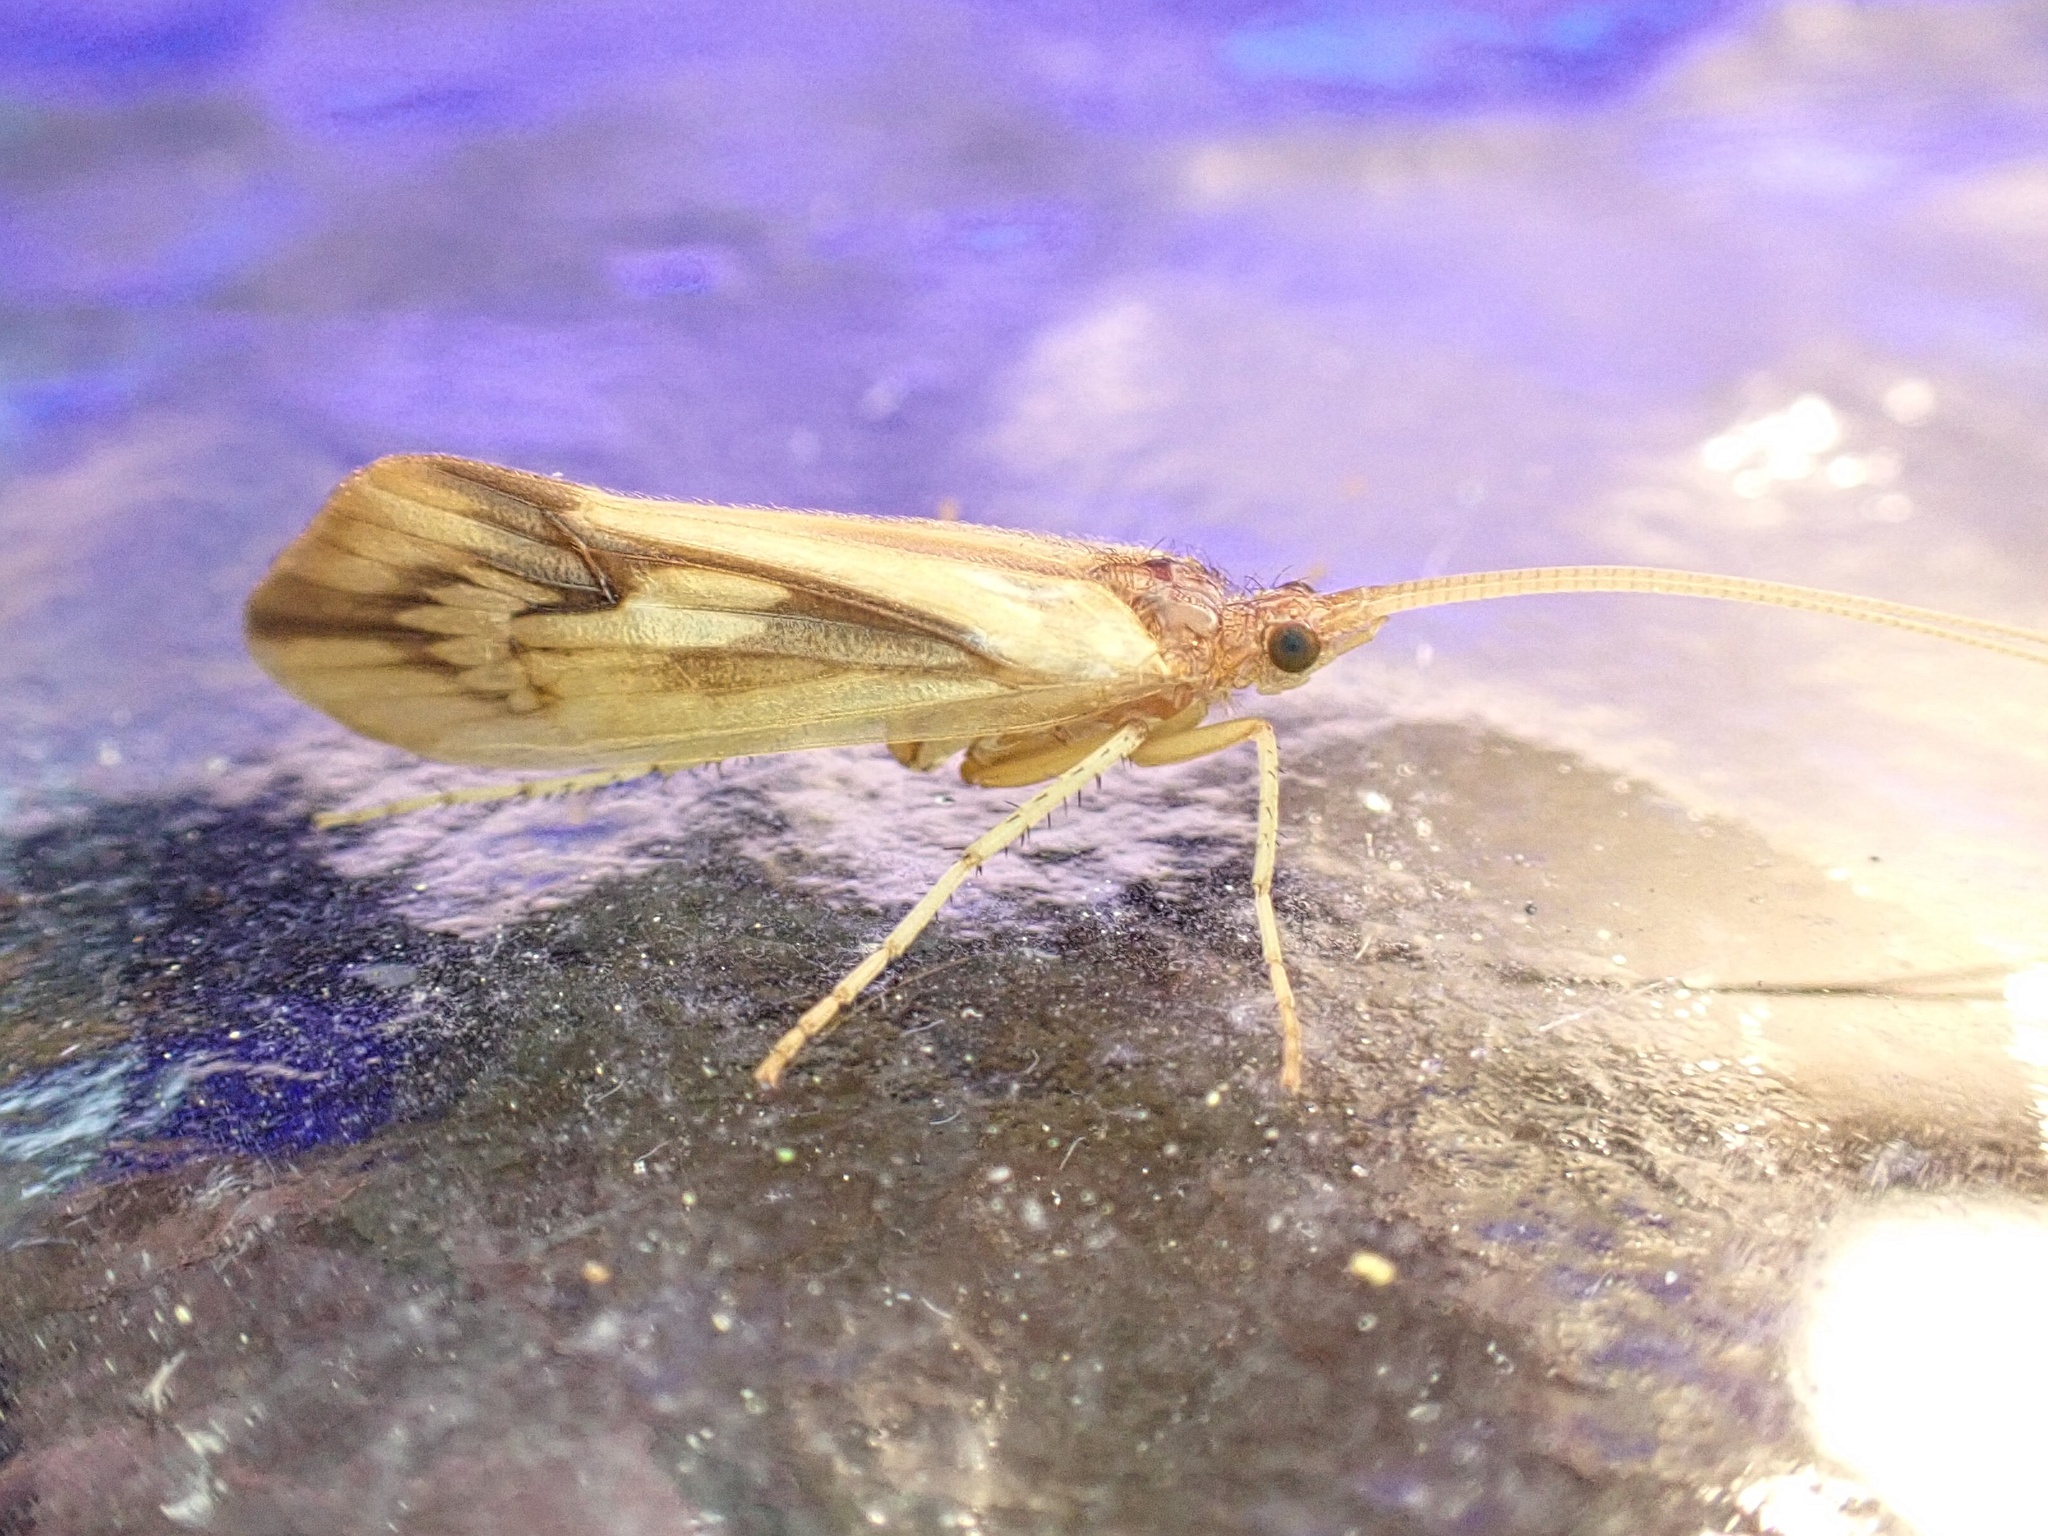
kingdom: Animalia
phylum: Arthropoda
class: Insecta
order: Trichoptera
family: Limnephilidae
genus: Platycentropus
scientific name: Platycentropus radiatus
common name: Chocolate-and-cream sedge
